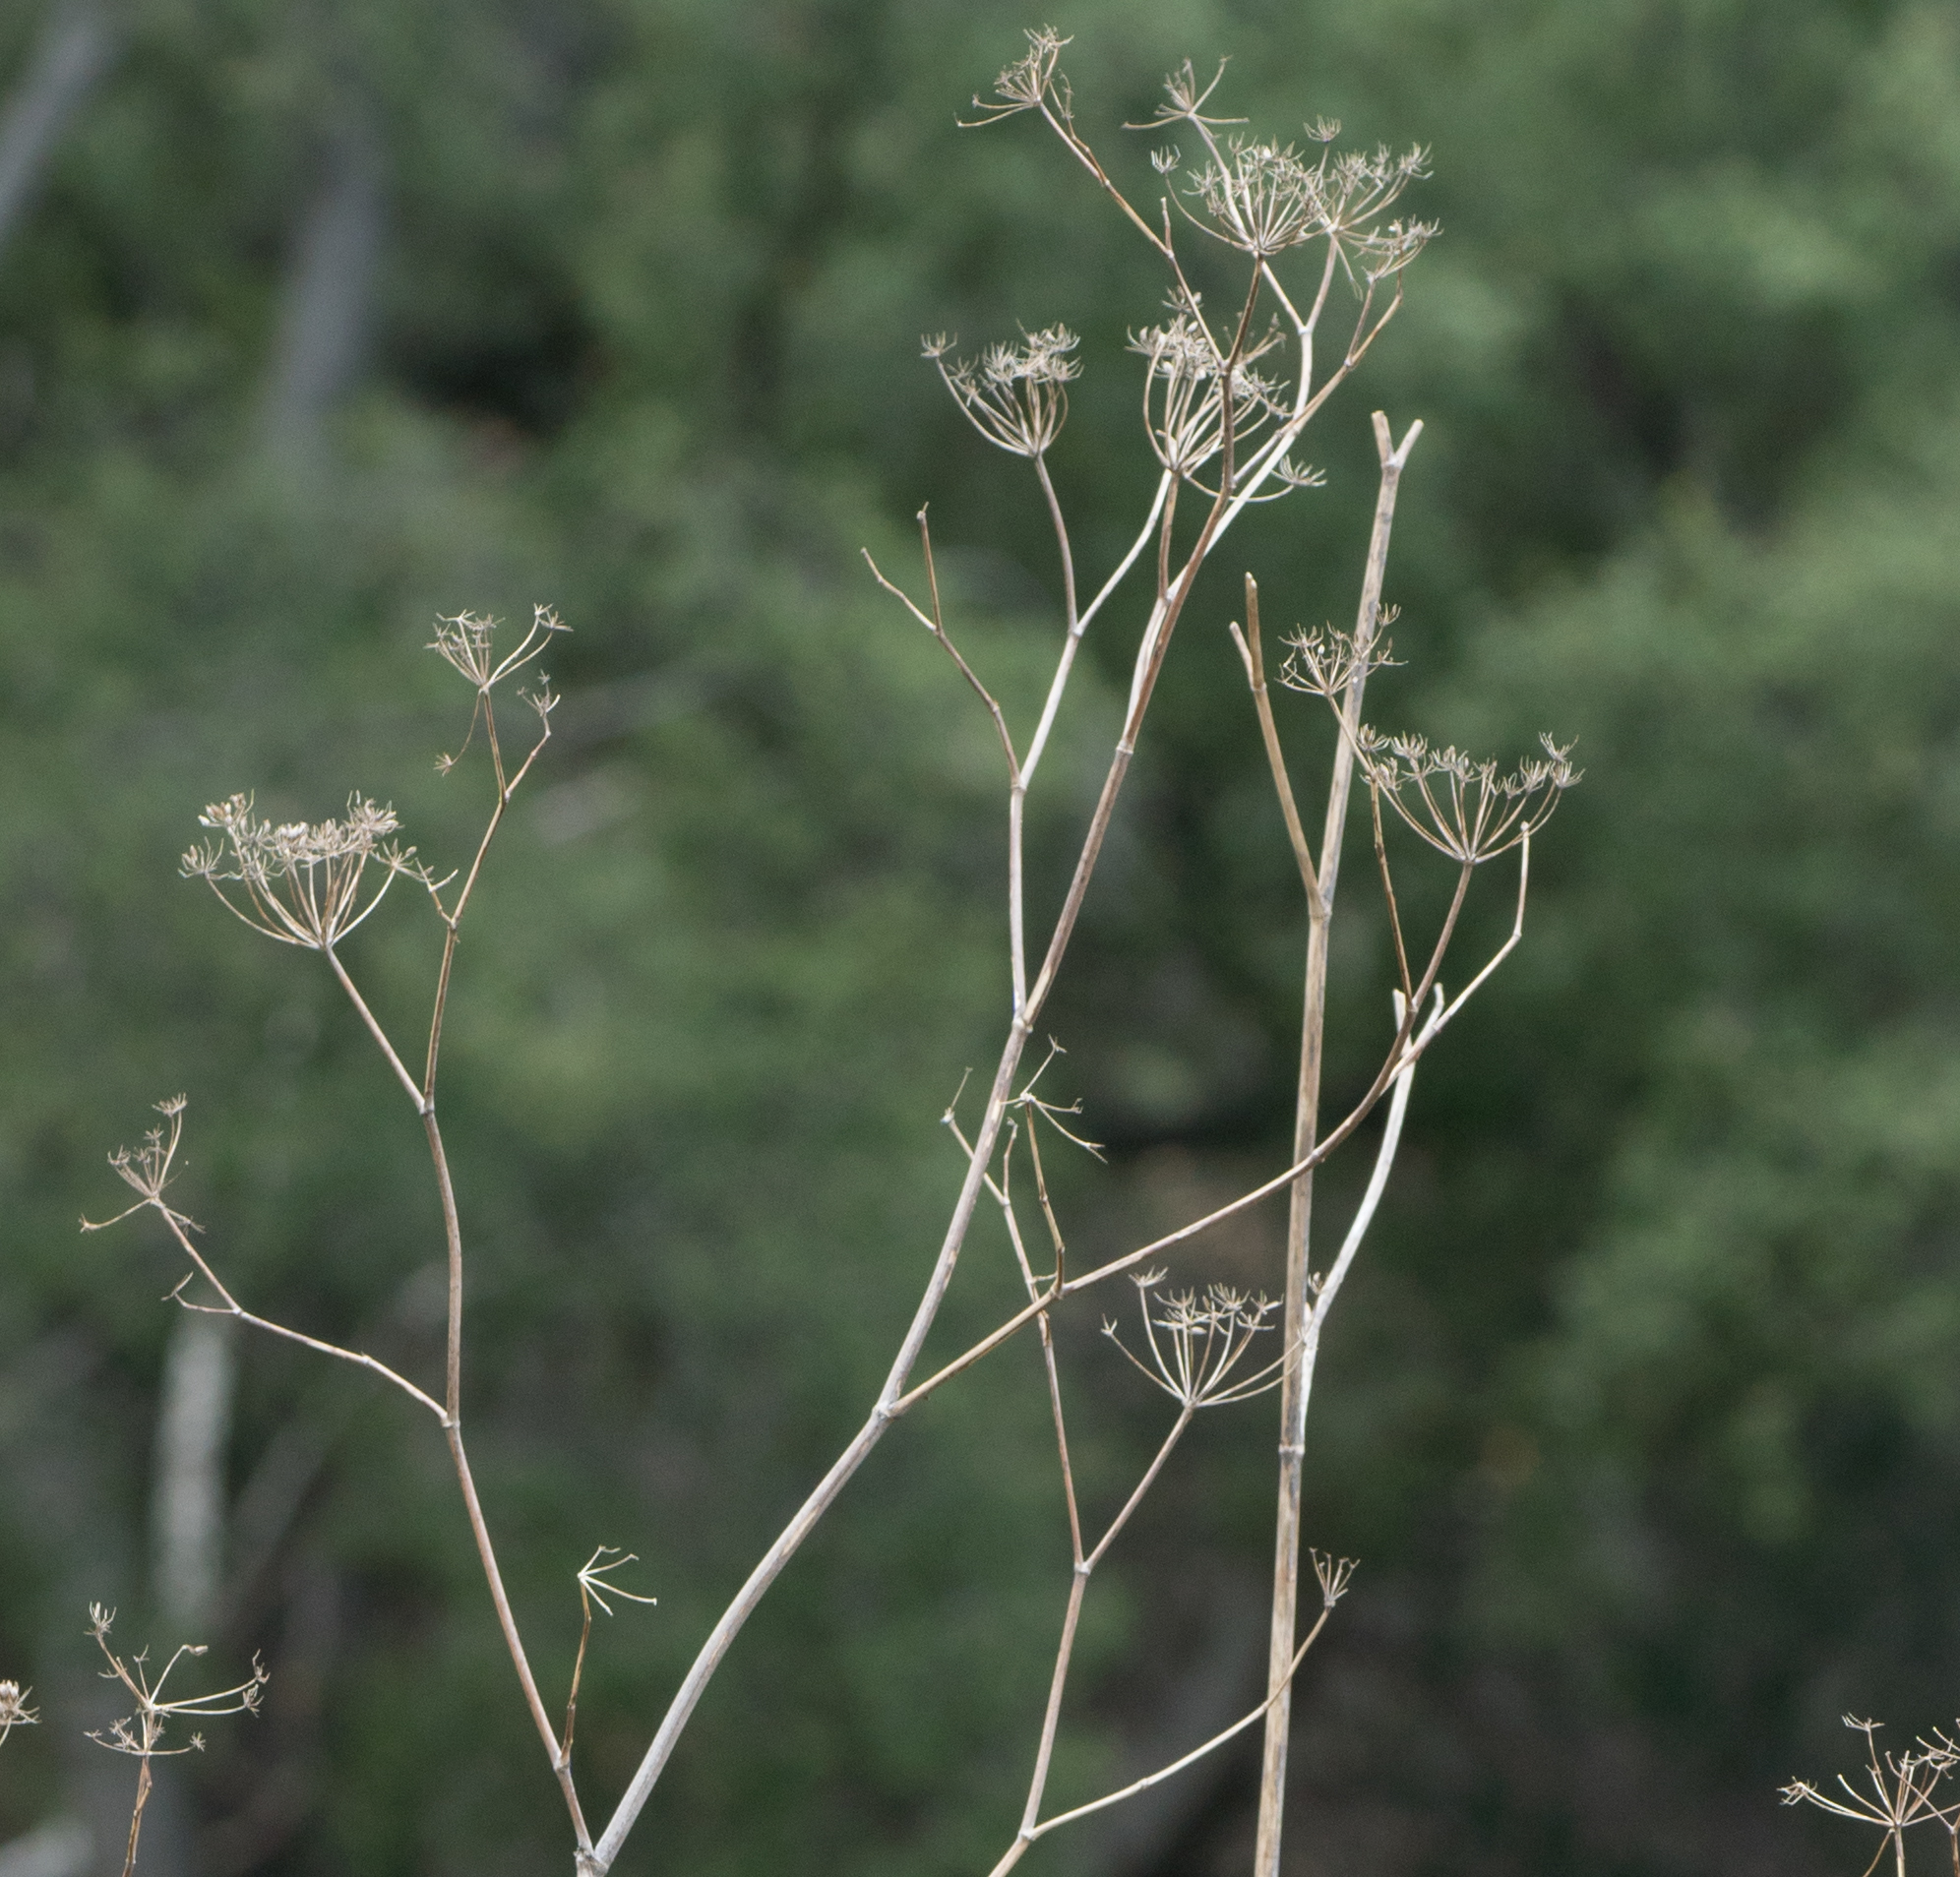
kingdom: Plantae
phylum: Tracheophyta
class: Magnoliopsida
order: Apiales
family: Apiaceae
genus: Foeniculum
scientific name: Foeniculum vulgare
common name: Fennel
